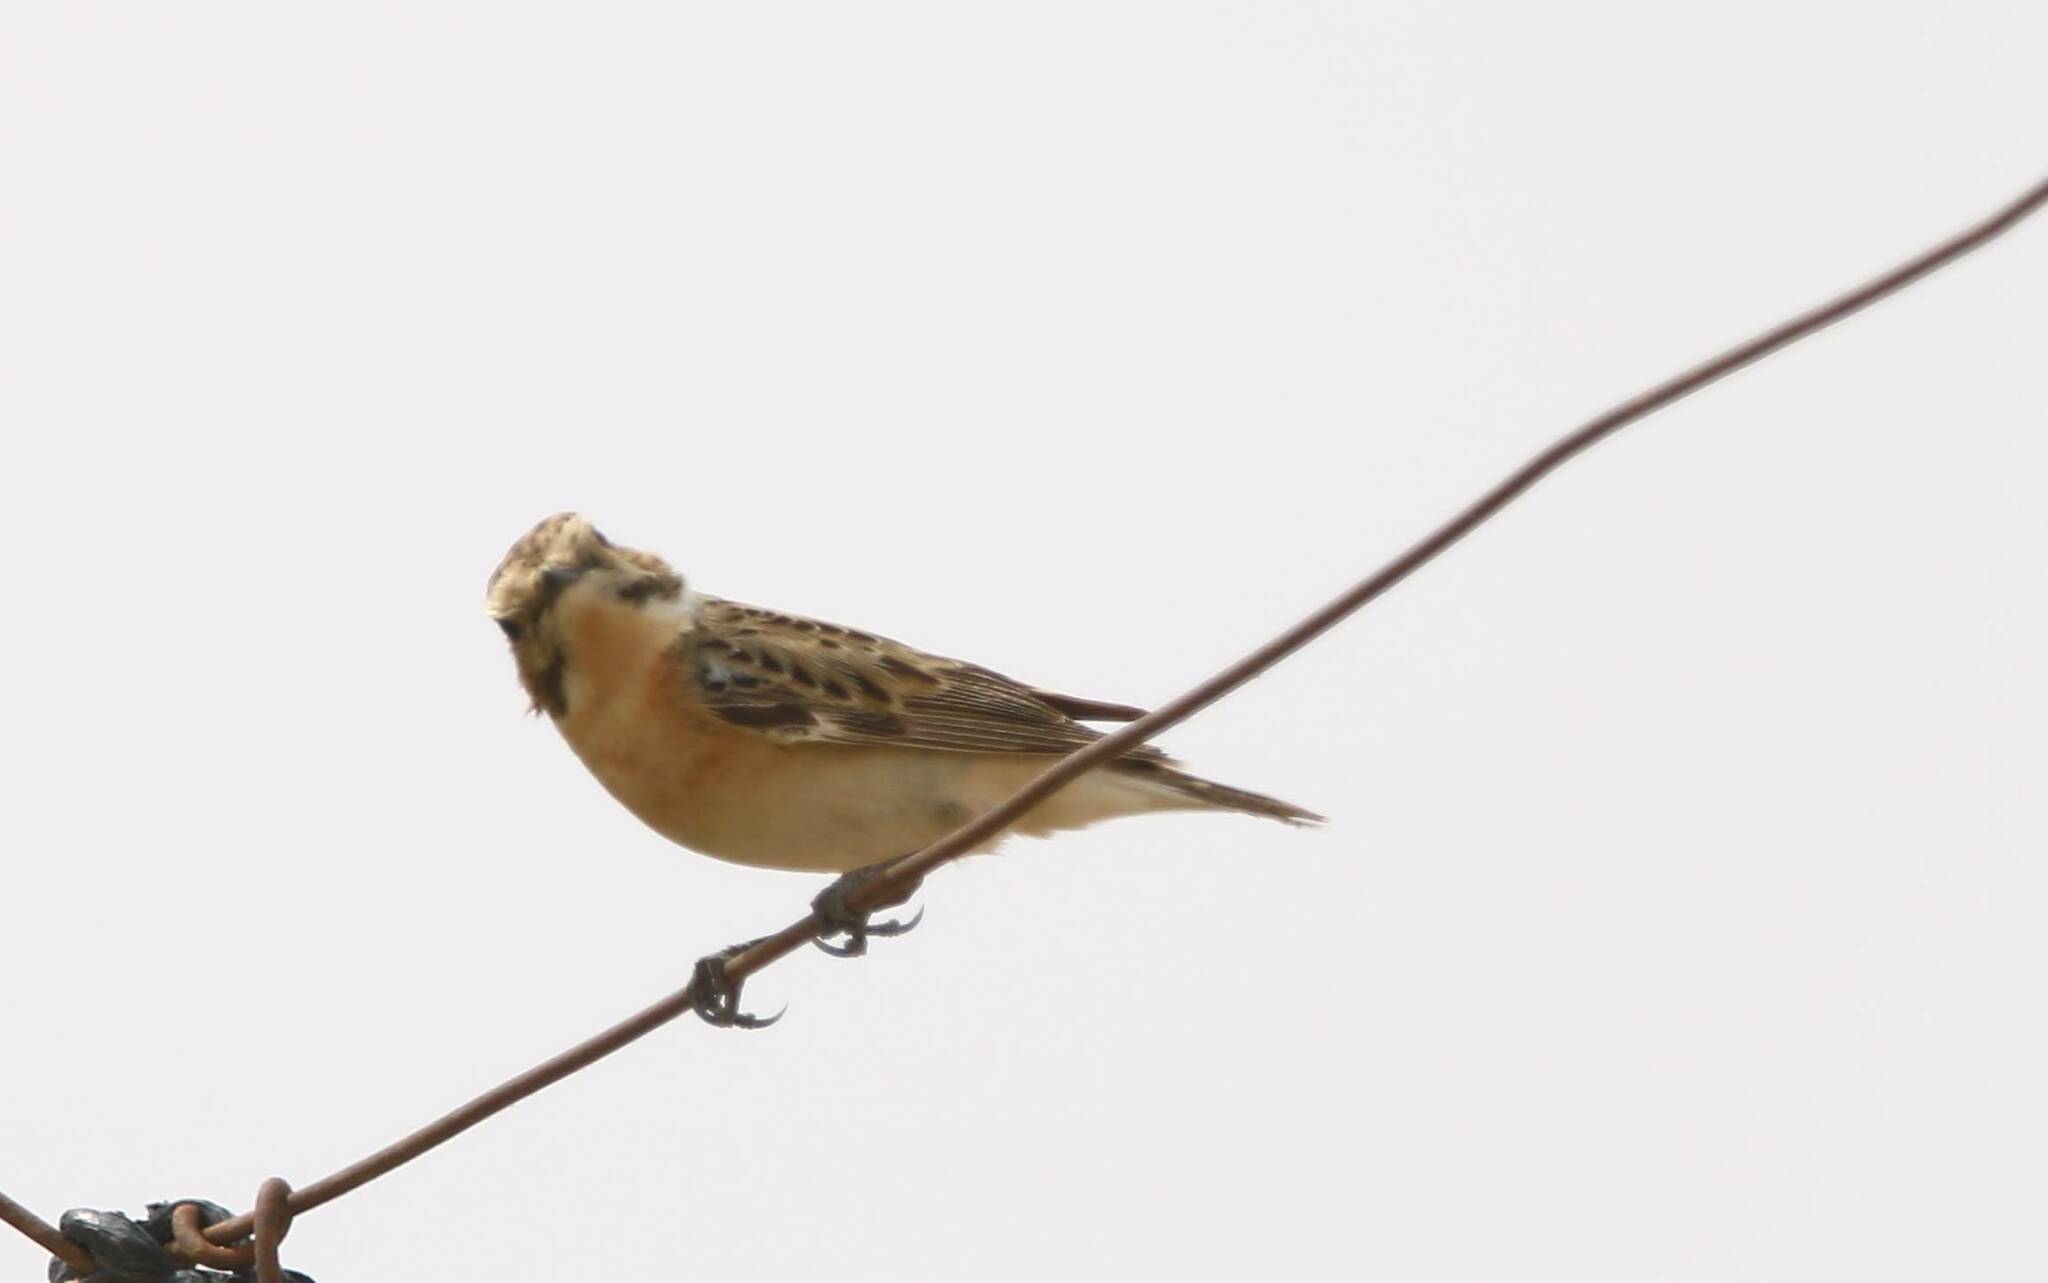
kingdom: Animalia
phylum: Chordata
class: Aves
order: Passeriformes
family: Muscicapidae
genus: Saxicola
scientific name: Saxicola rubetra
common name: Whinchat
